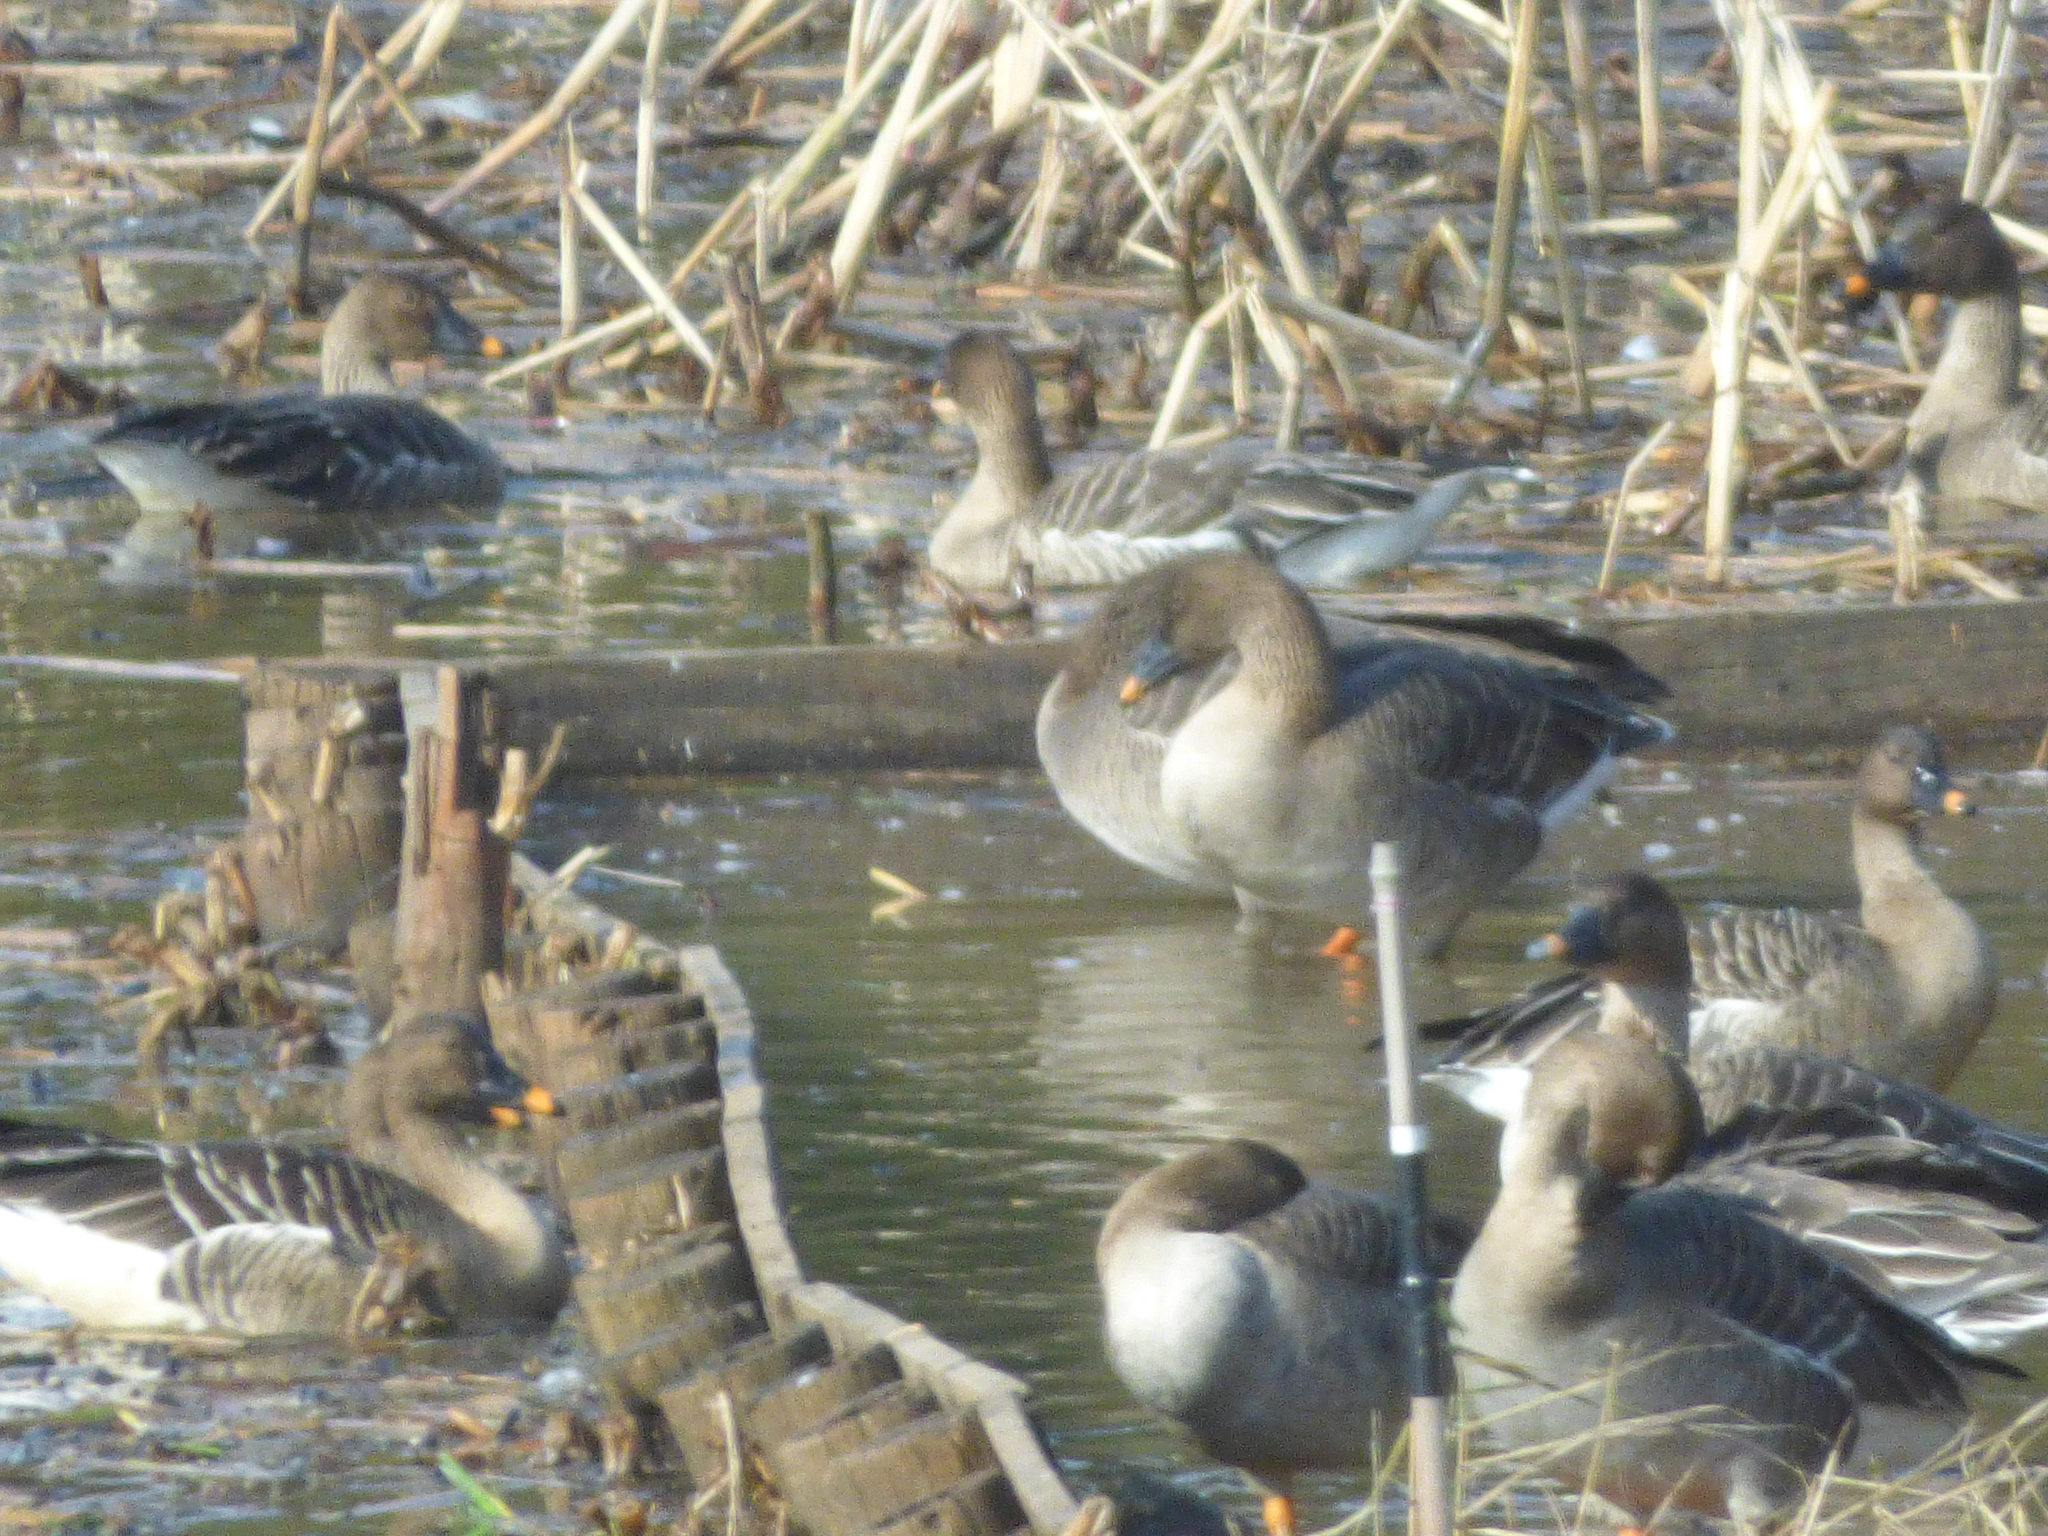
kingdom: Animalia
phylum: Chordata
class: Aves
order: Anseriformes
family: Anatidae
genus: Anser
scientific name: Anser fabalis
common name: Bean goose
